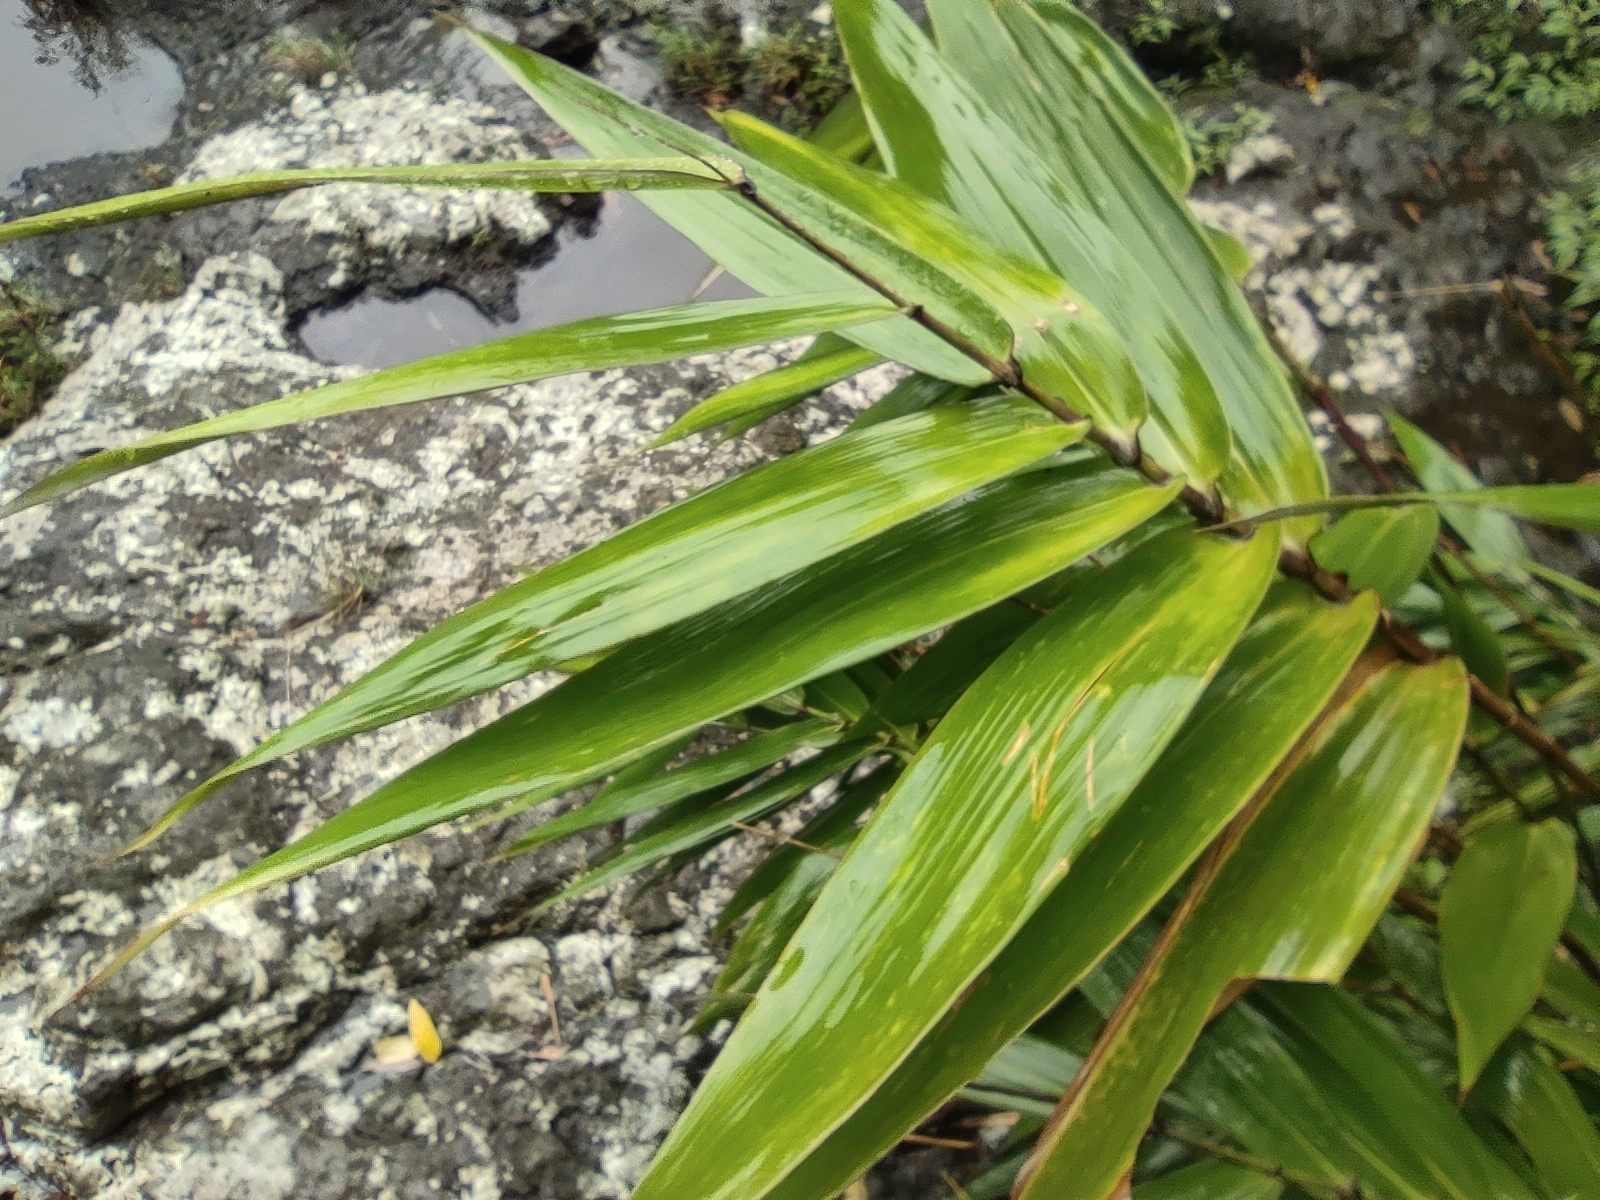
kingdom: Plantae
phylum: Tracheophyta
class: Liliopsida
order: Poales
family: Poaceae
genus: Thysanolaena
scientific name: Thysanolaena latifolia
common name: Tiger grass
